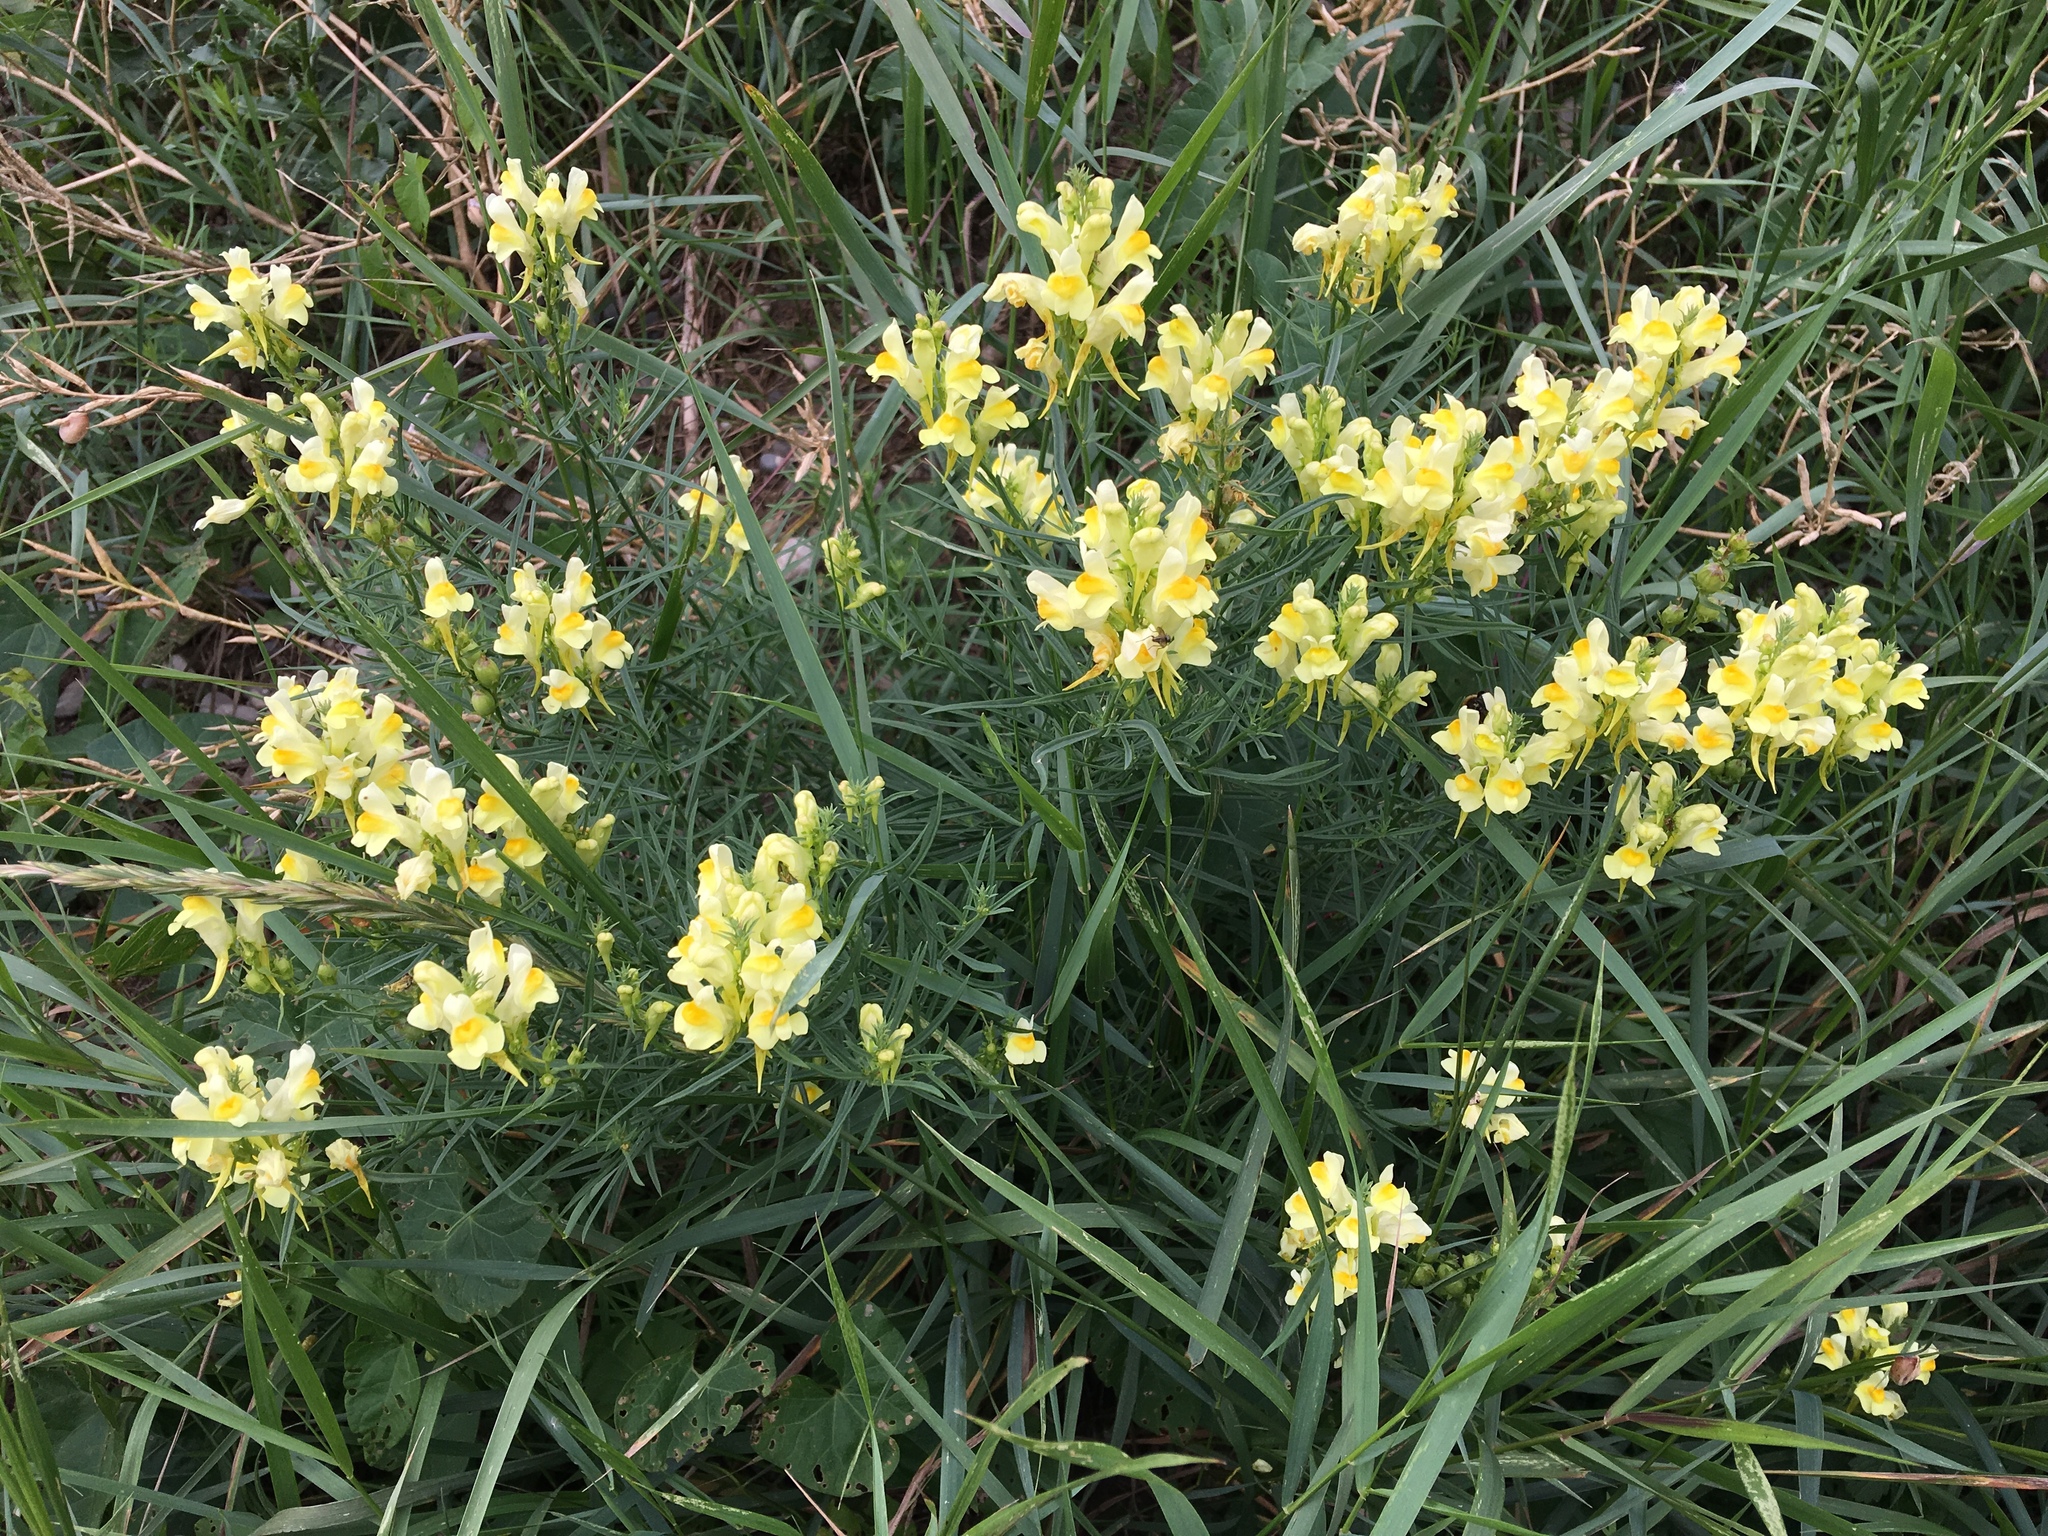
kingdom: Plantae
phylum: Tracheophyta
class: Magnoliopsida
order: Lamiales
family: Plantaginaceae
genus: Linaria
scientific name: Linaria vulgaris
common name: Butter and eggs
